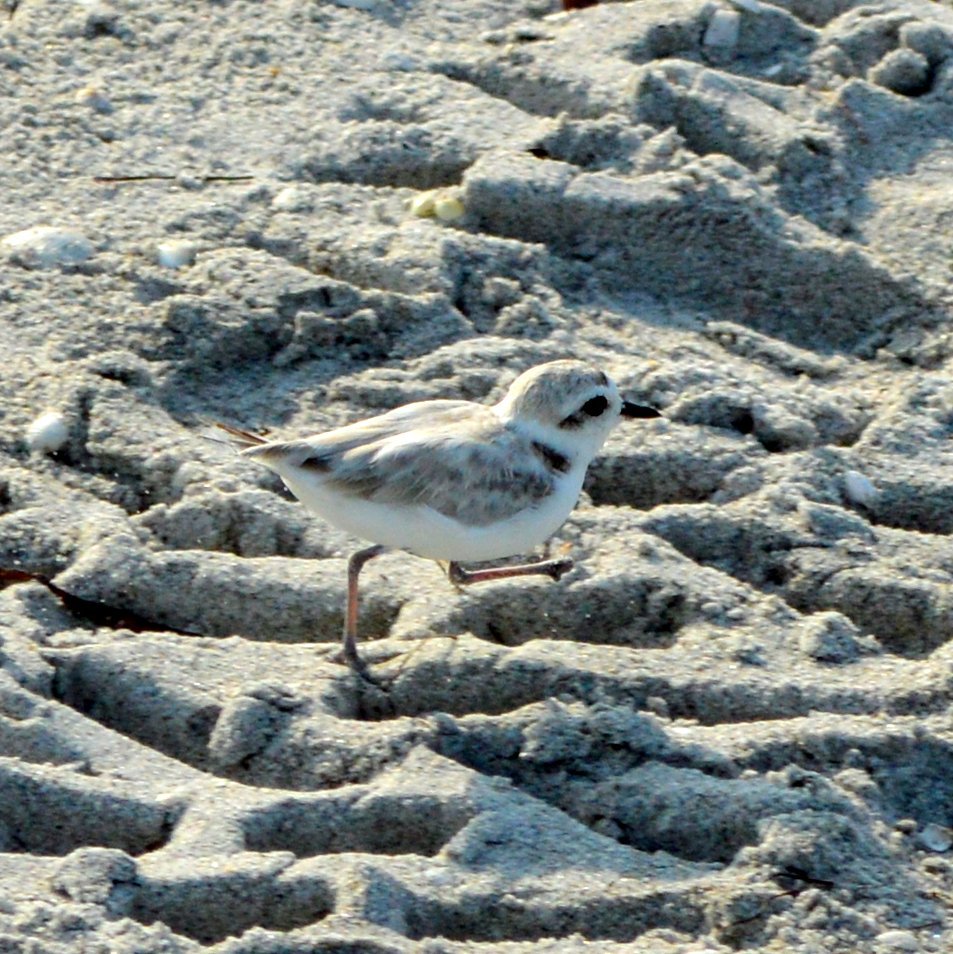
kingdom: Animalia
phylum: Chordata
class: Aves
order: Charadriiformes
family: Charadriidae
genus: Anarhynchus
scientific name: Anarhynchus
